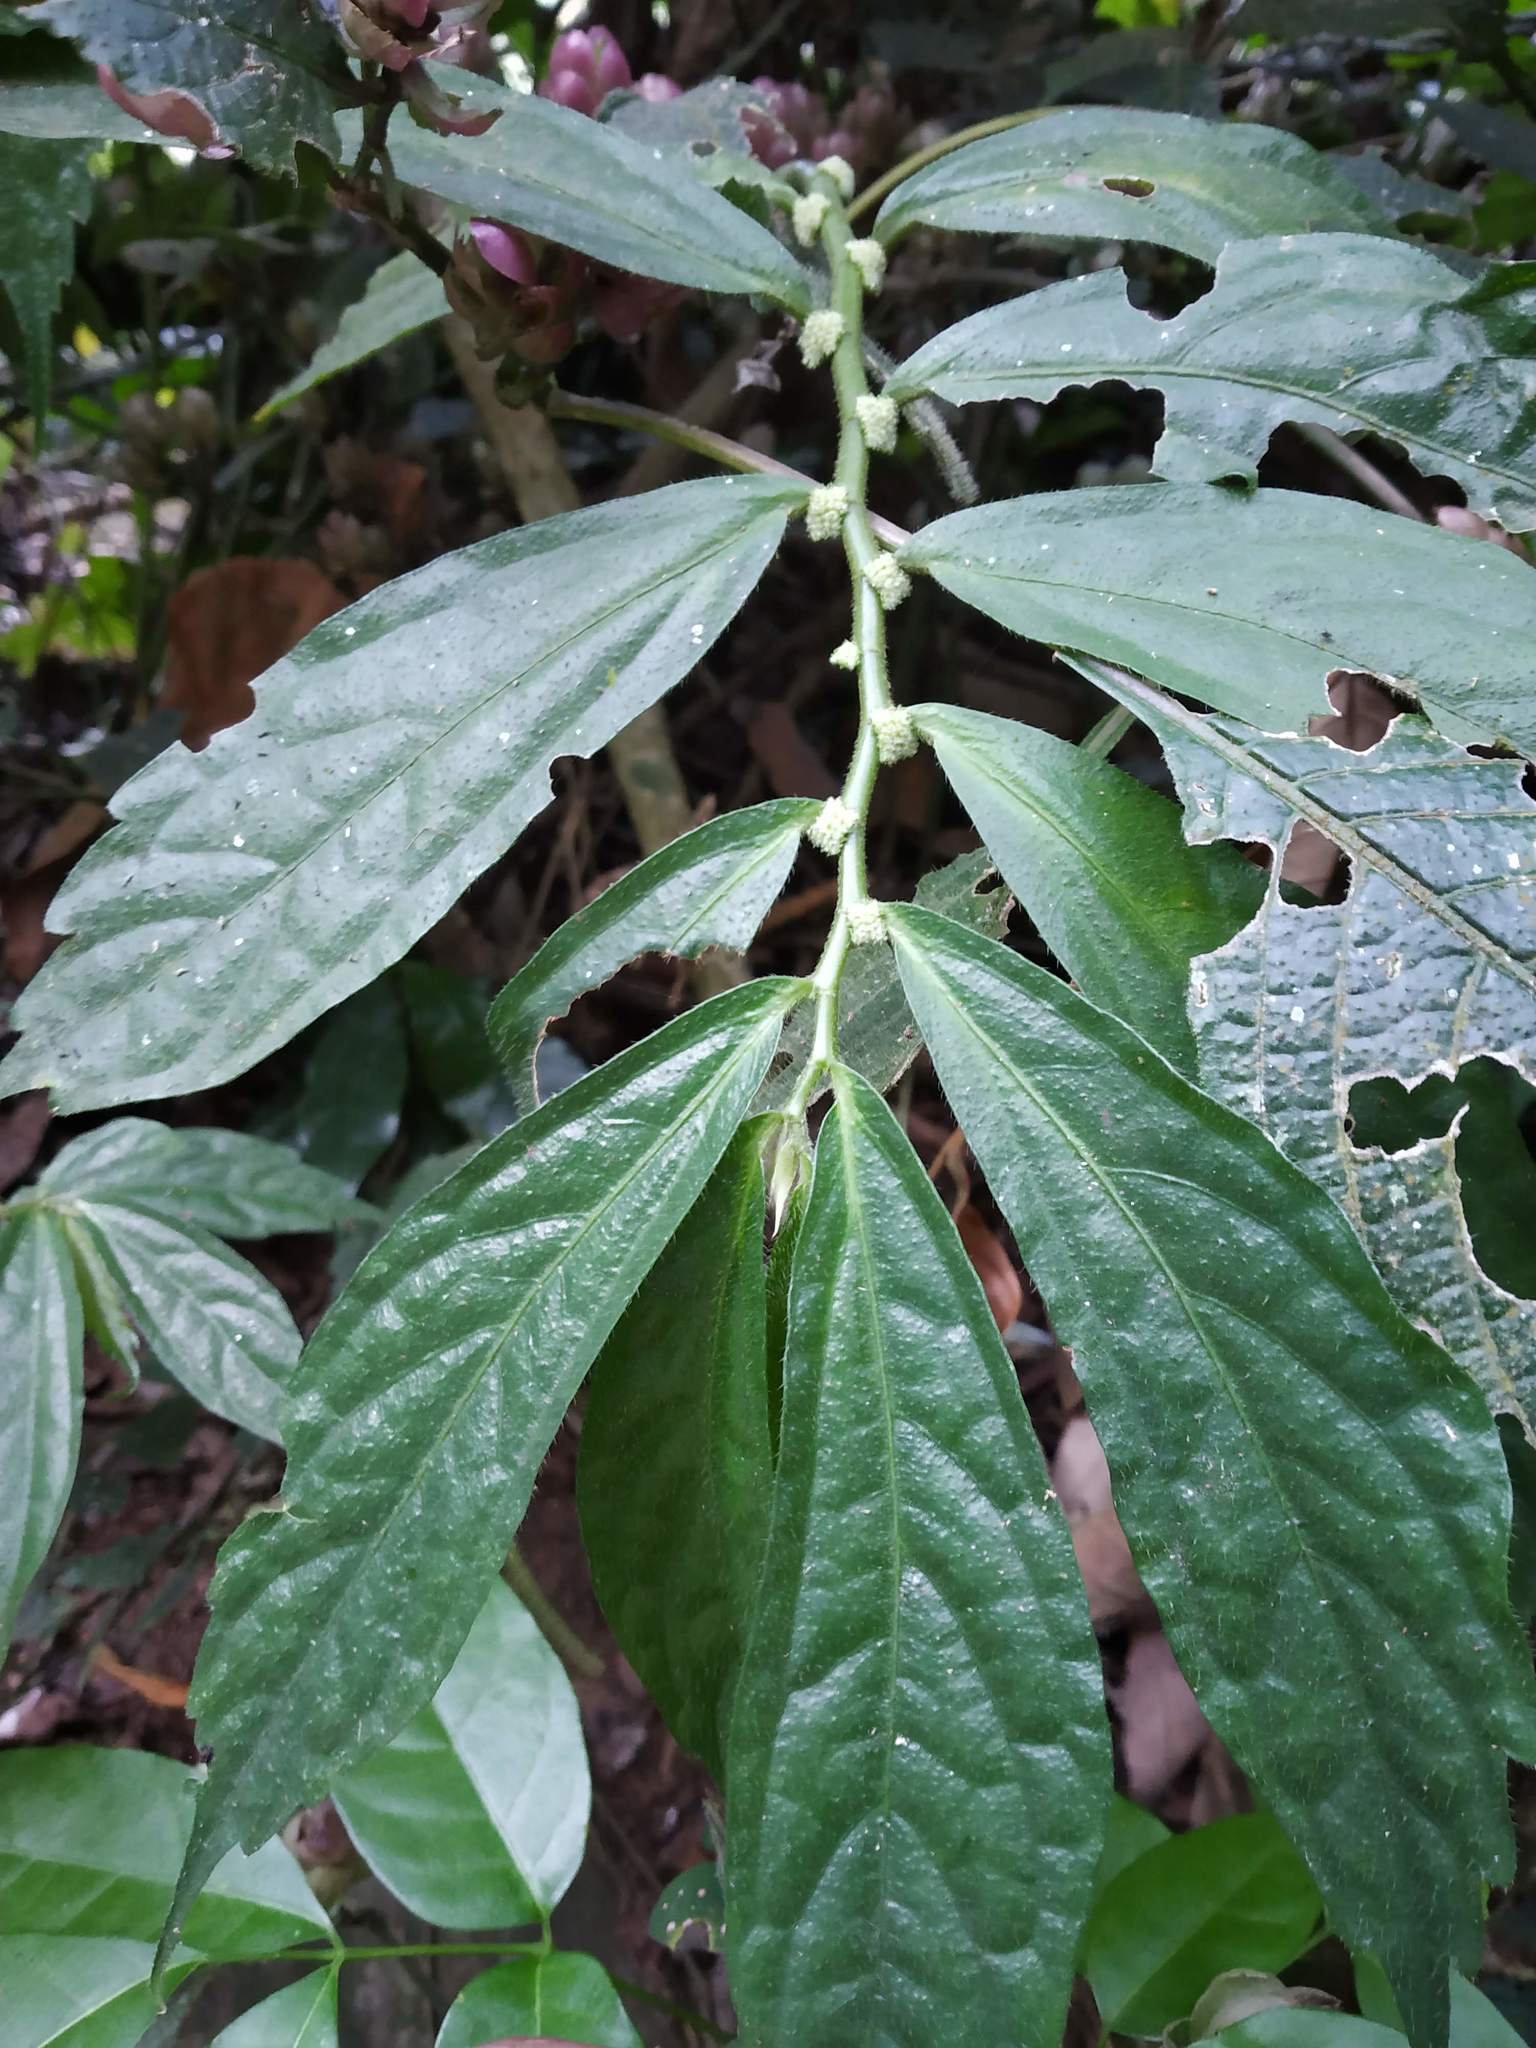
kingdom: Plantae
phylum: Tracheophyta
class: Magnoliopsida
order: Rosales
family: Urticaceae
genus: Elatostema
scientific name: Elatostema lineolatum
